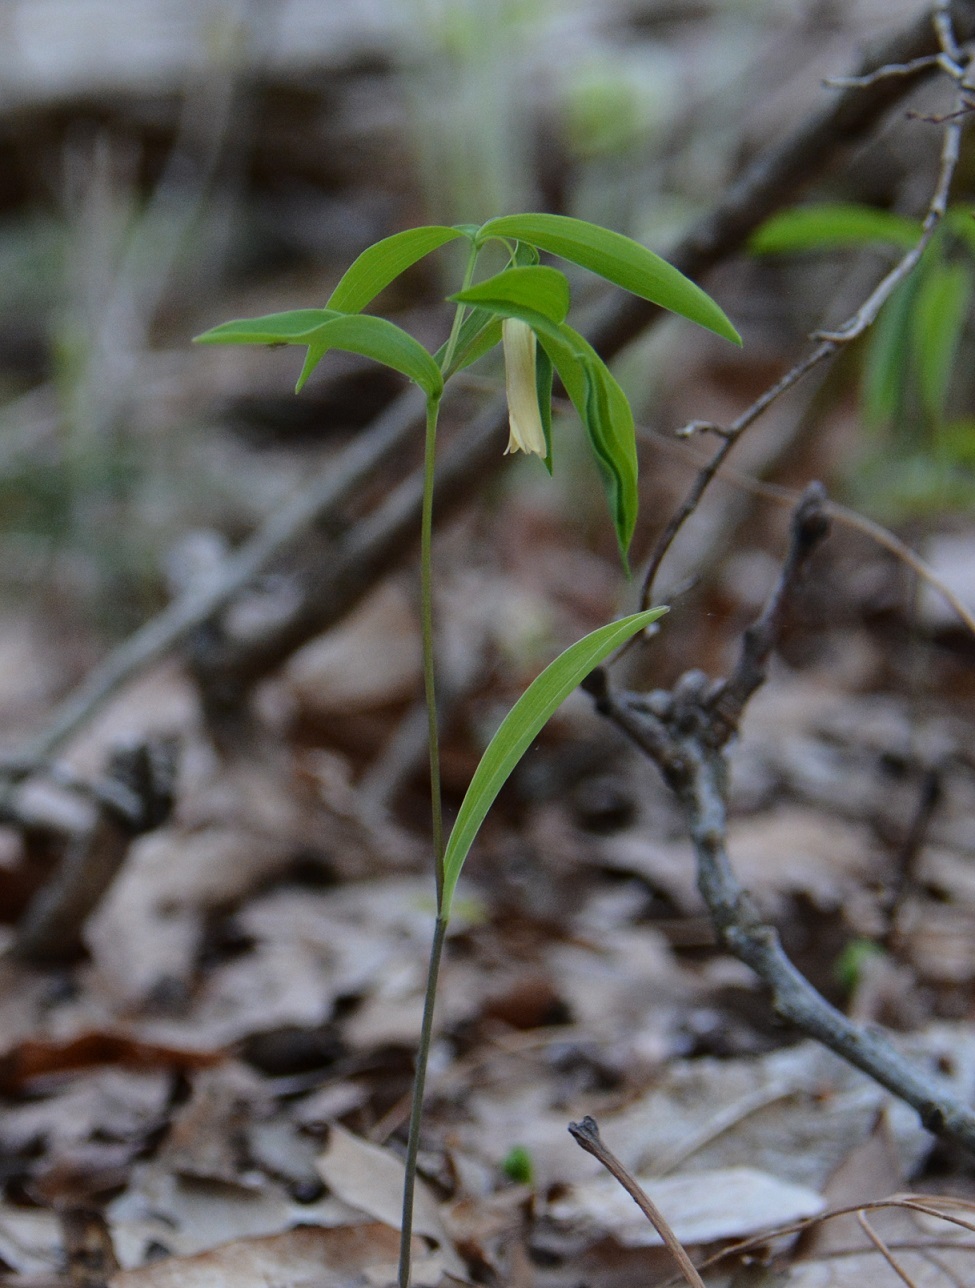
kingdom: Plantae
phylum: Tracheophyta
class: Liliopsida
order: Liliales
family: Colchicaceae
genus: Uvularia
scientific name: Uvularia sessilifolia
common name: Straw-lily
